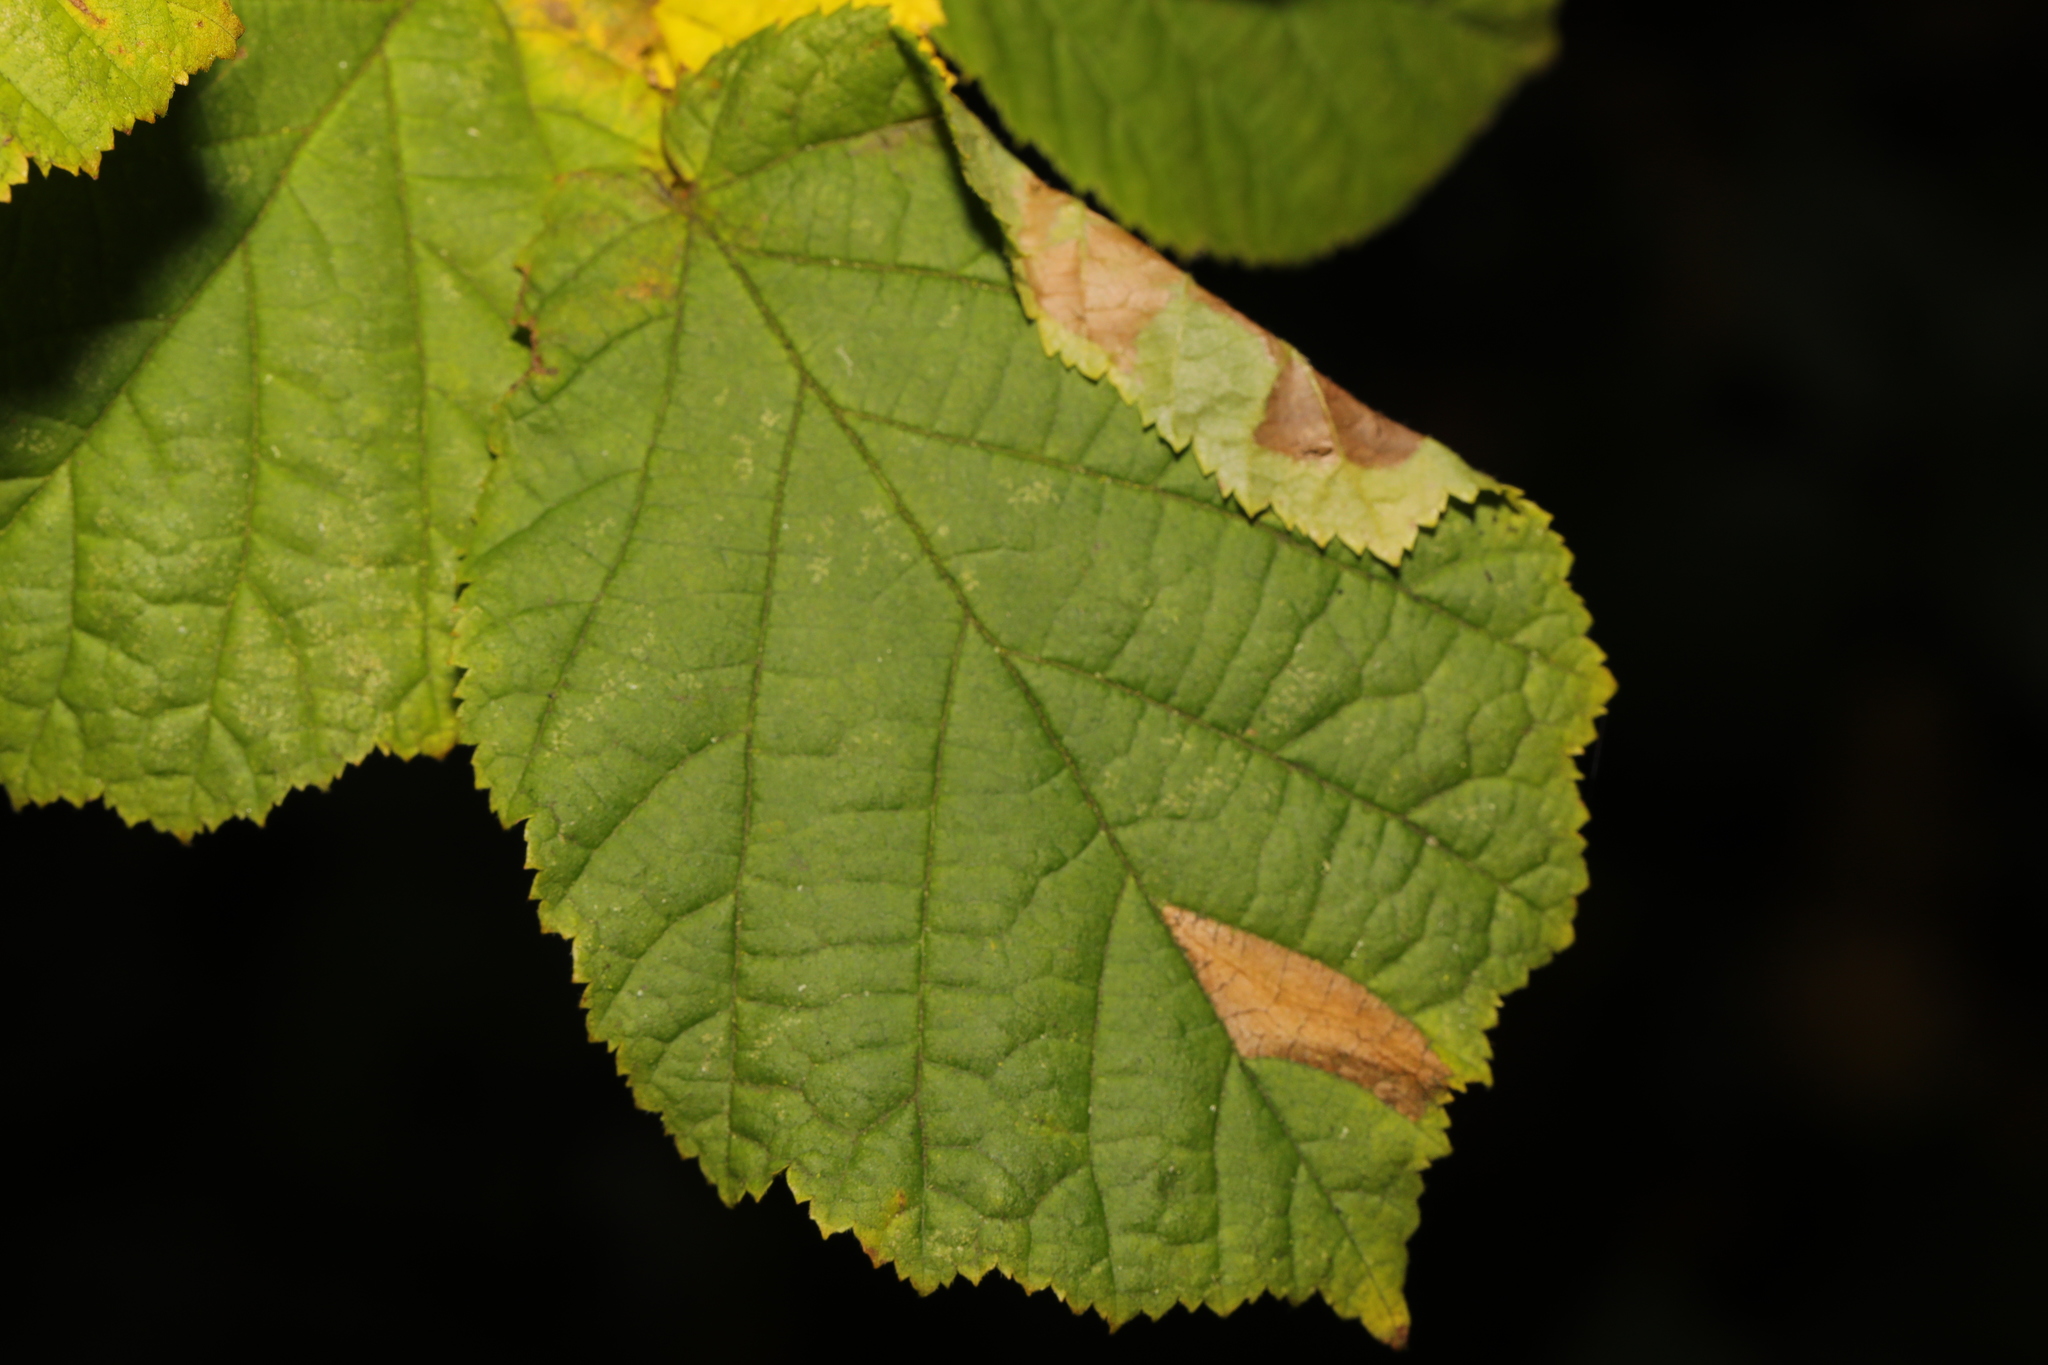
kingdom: Animalia
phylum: Arthropoda
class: Insecta
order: Lepidoptera
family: Gracillariidae
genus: Parornix
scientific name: Parornix devoniella
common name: Hazel slender
